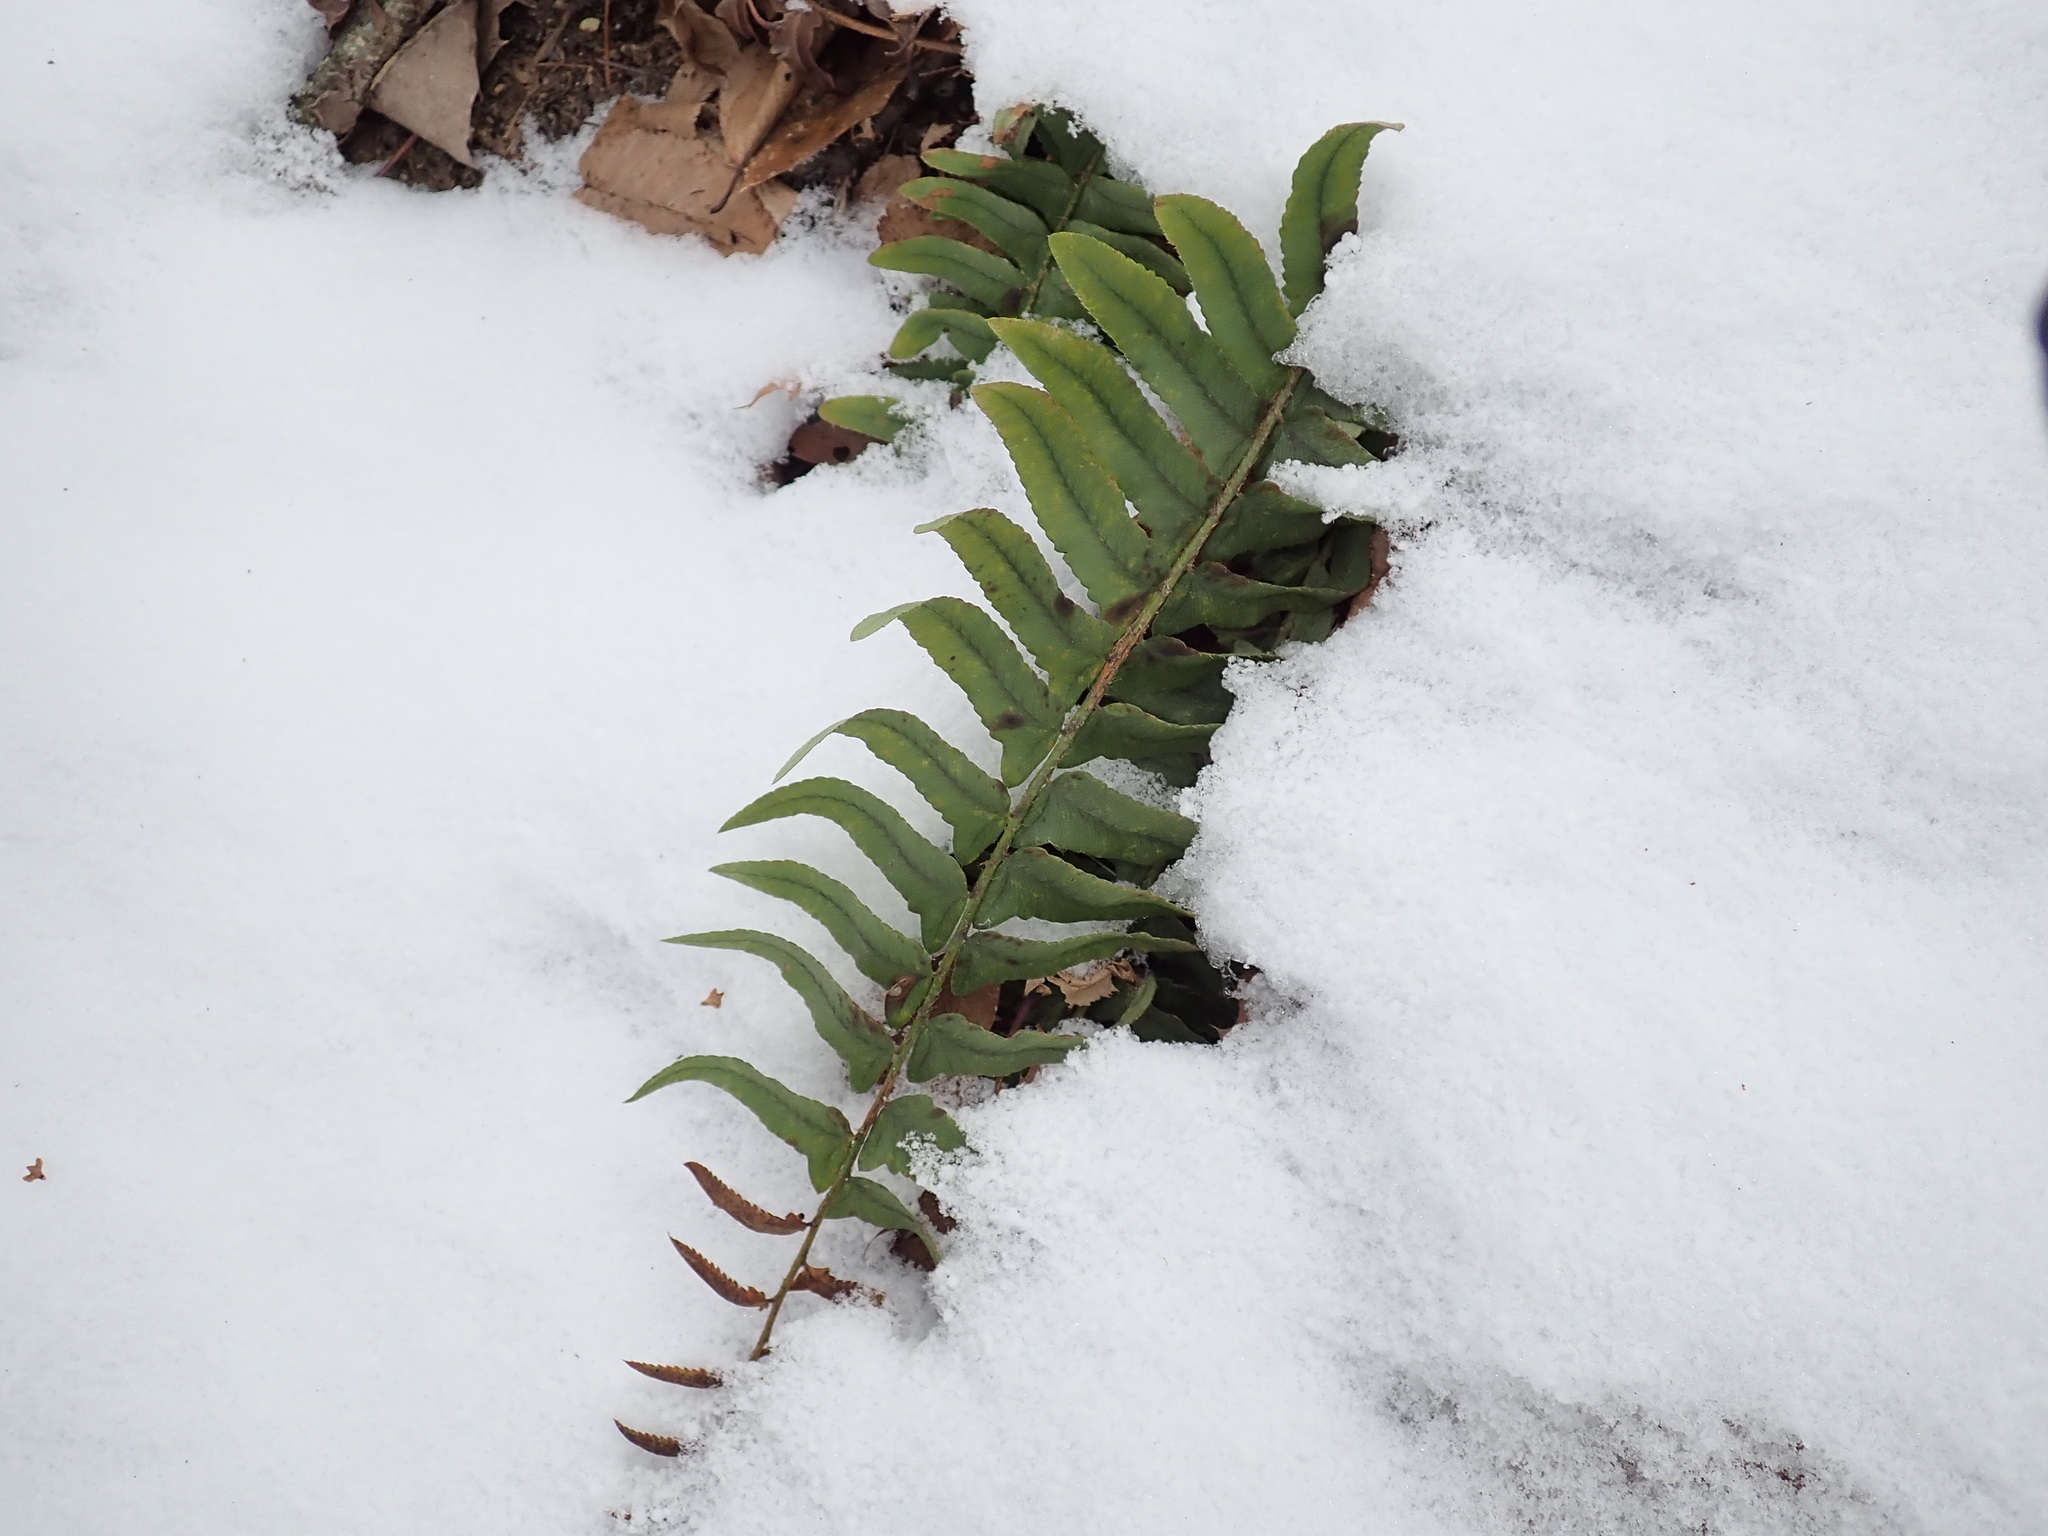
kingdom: Plantae
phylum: Tracheophyta
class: Polypodiopsida
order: Polypodiales
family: Dryopteridaceae
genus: Polystichum
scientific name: Polystichum acrostichoides
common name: Christmas fern
